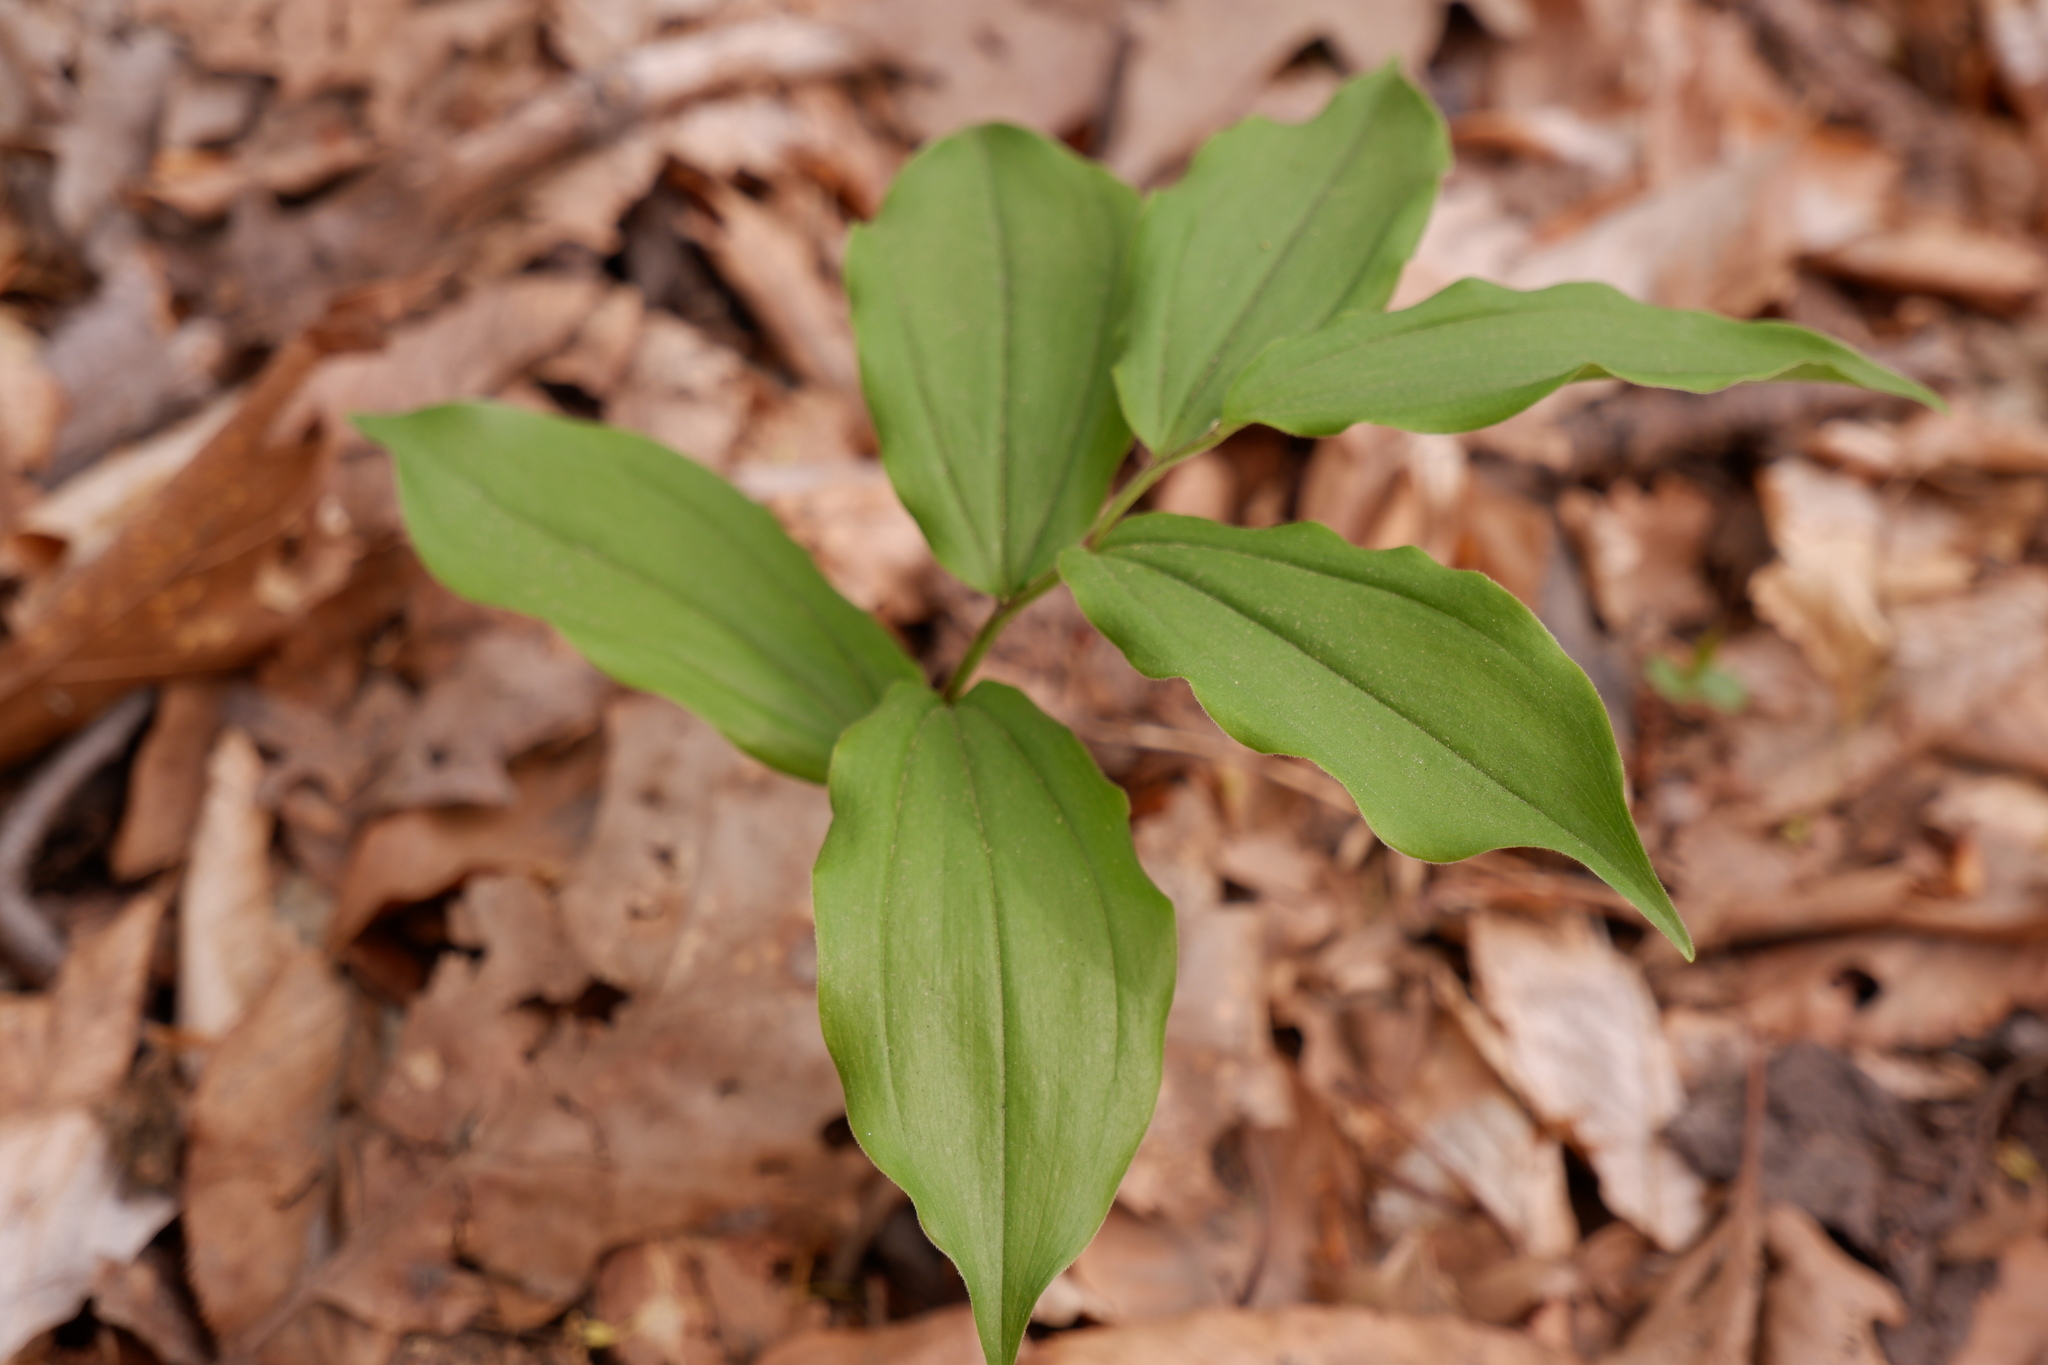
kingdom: Plantae
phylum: Tracheophyta
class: Liliopsida
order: Asparagales
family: Asparagaceae
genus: Maianthemum
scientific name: Maianthemum racemosum
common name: False spikenard
